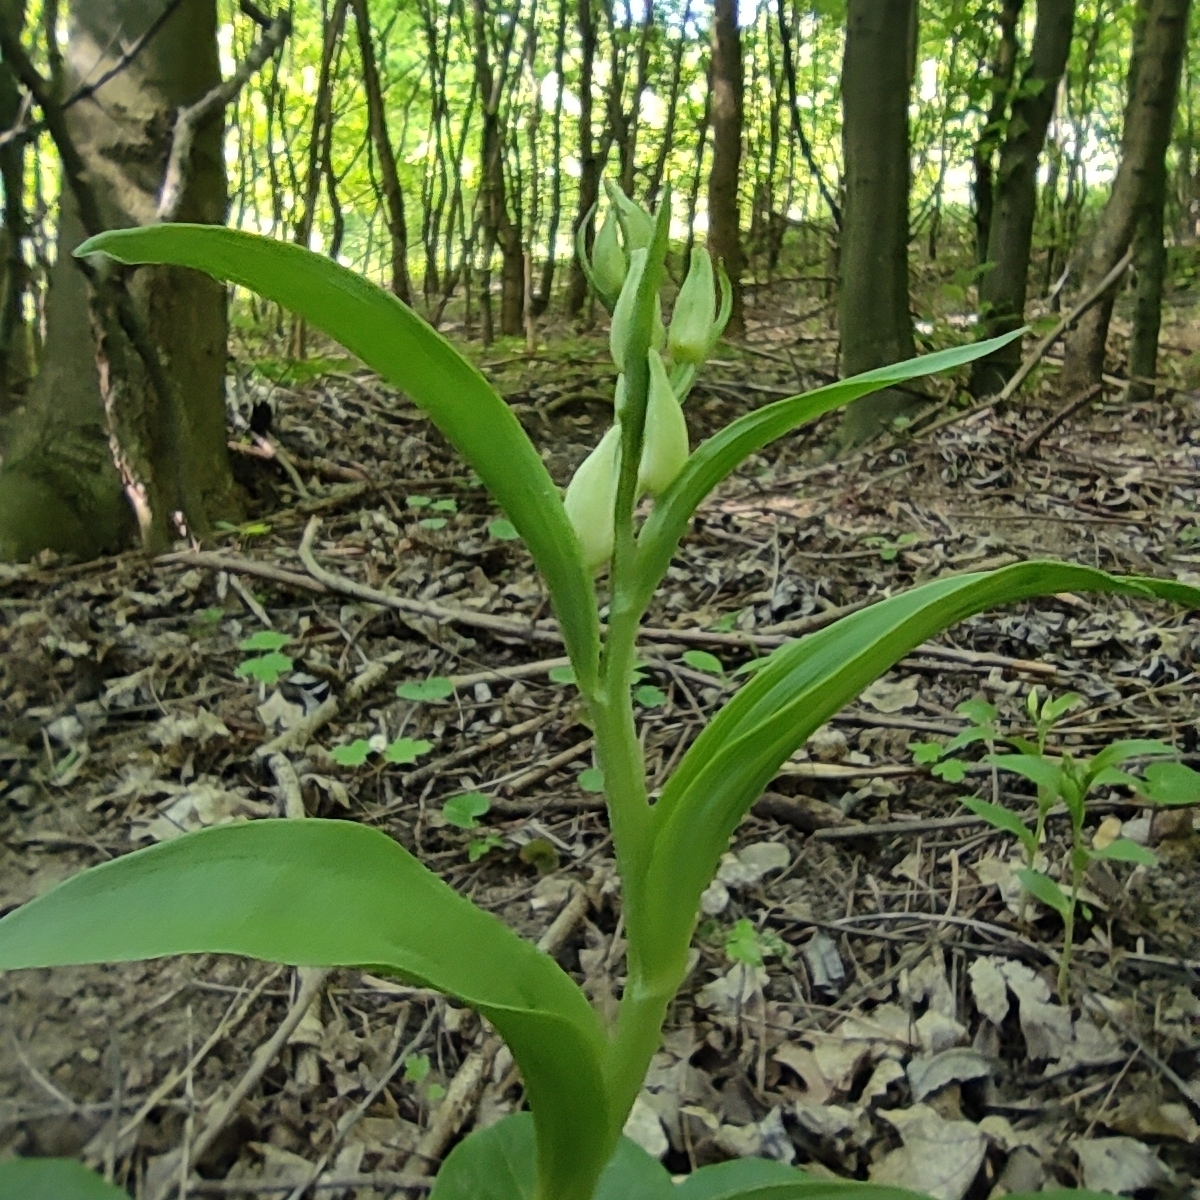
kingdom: Plantae
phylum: Tracheophyta
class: Liliopsida
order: Asparagales
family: Orchidaceae
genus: Cephalanthera
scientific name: Cephalanthera damasonium
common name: White helleborine
